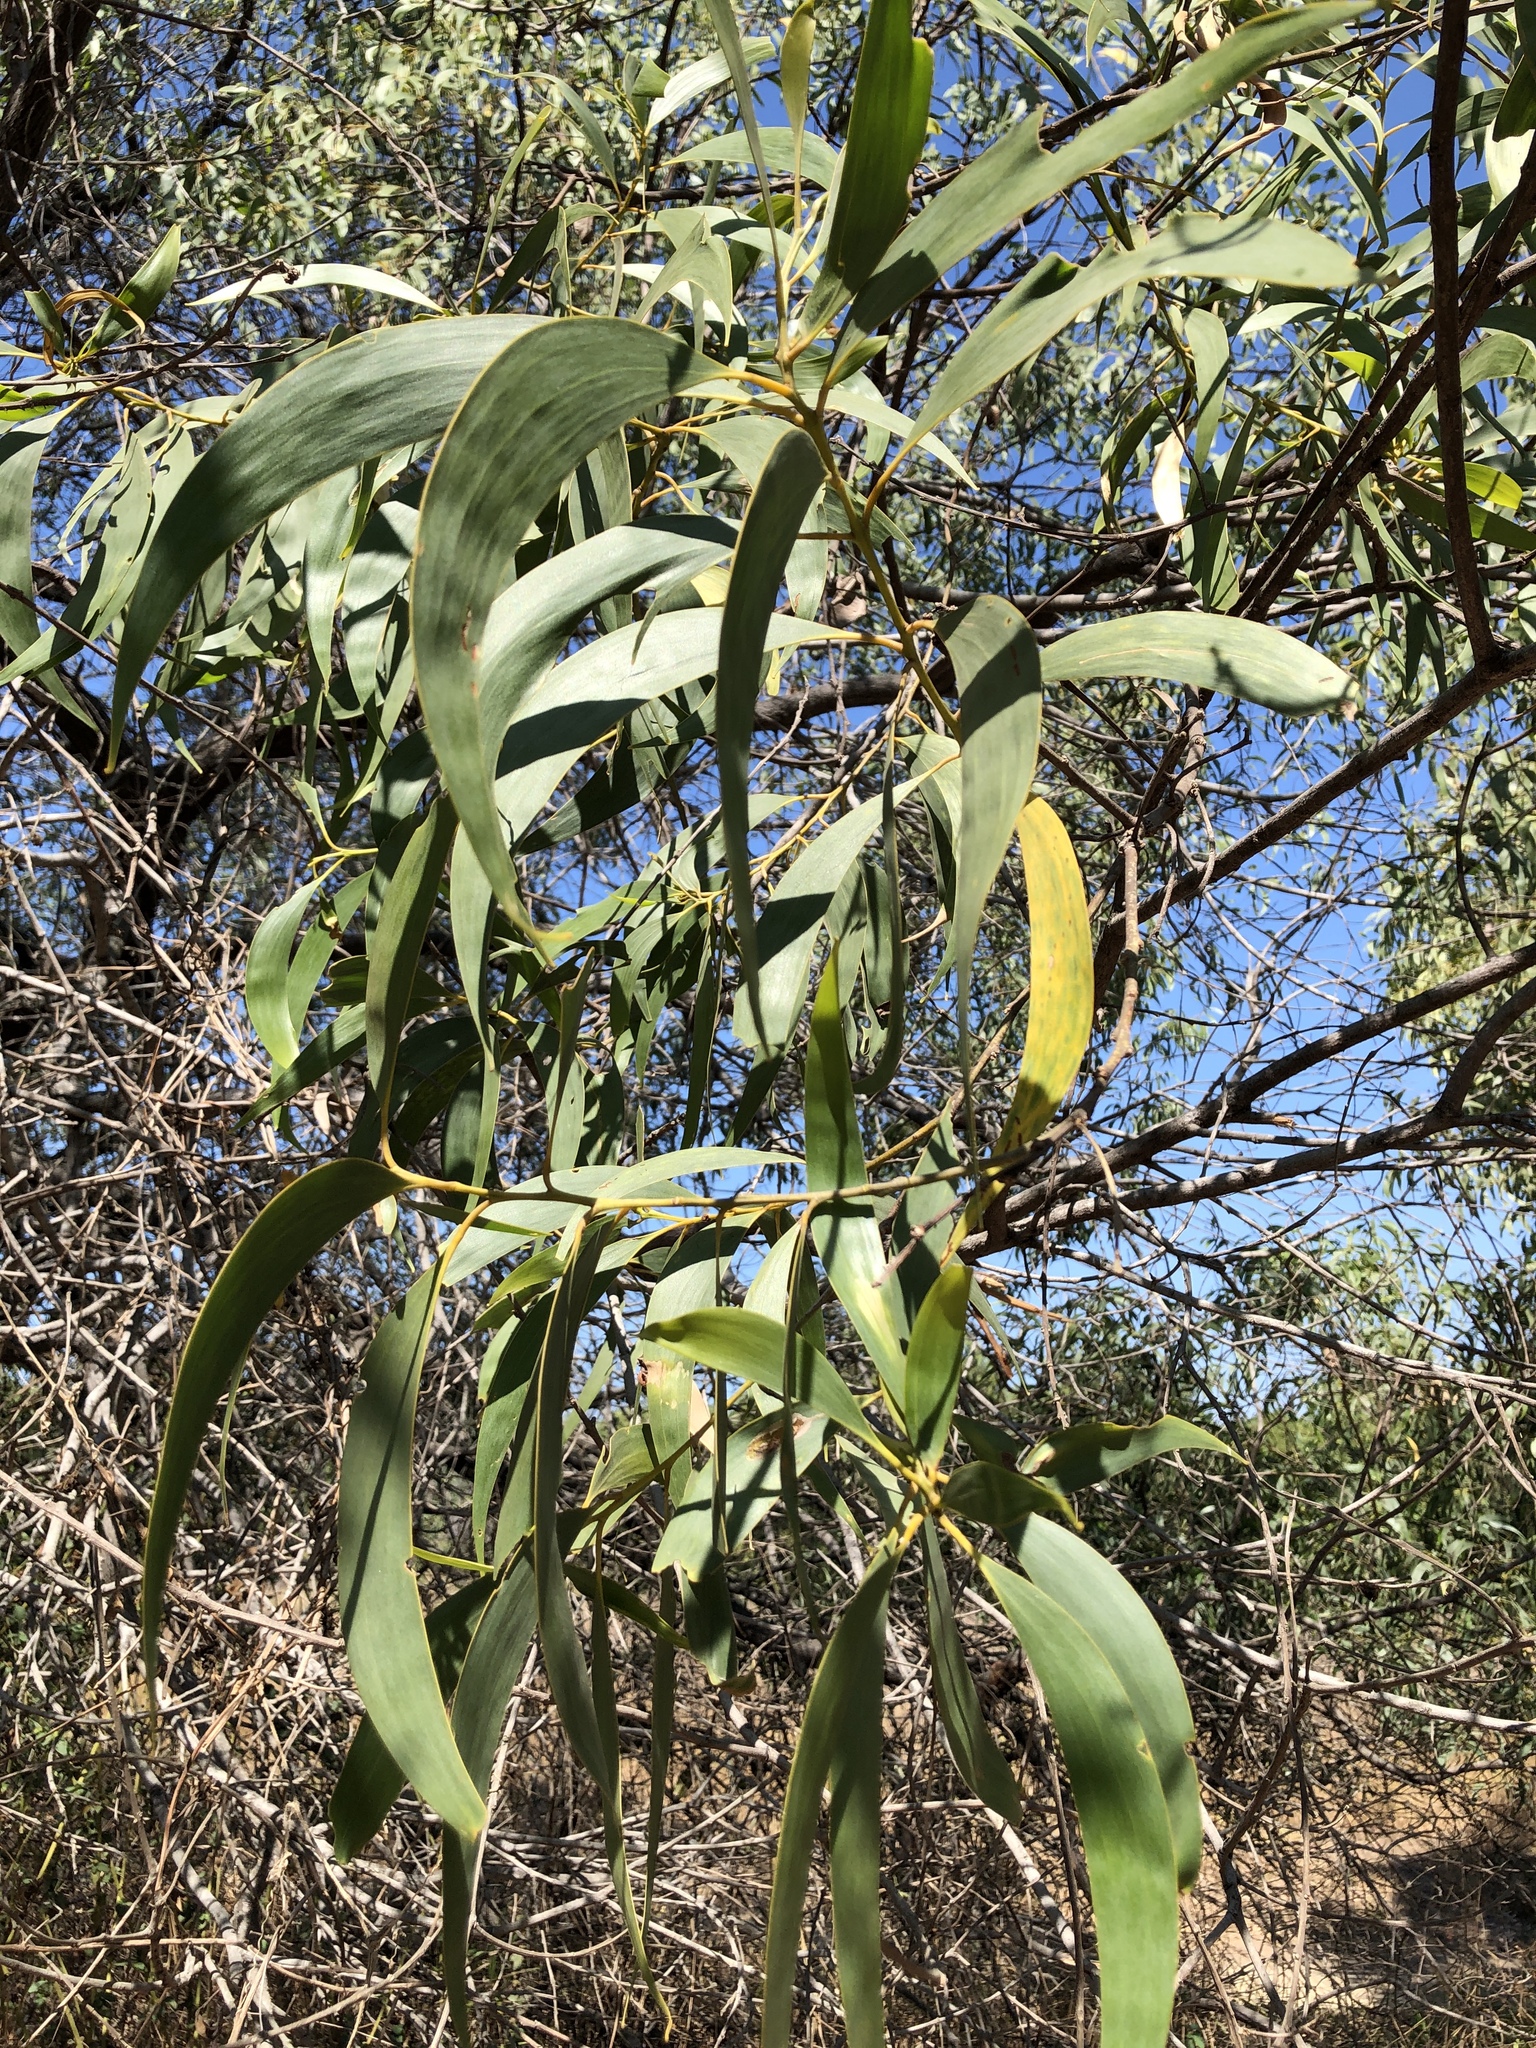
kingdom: Plantae
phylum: Tracheophyta
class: Magnoliopsida
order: Fabales
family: Fabaceae
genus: Acacia
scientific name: Acacia crassicarpa
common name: Northern wattle
